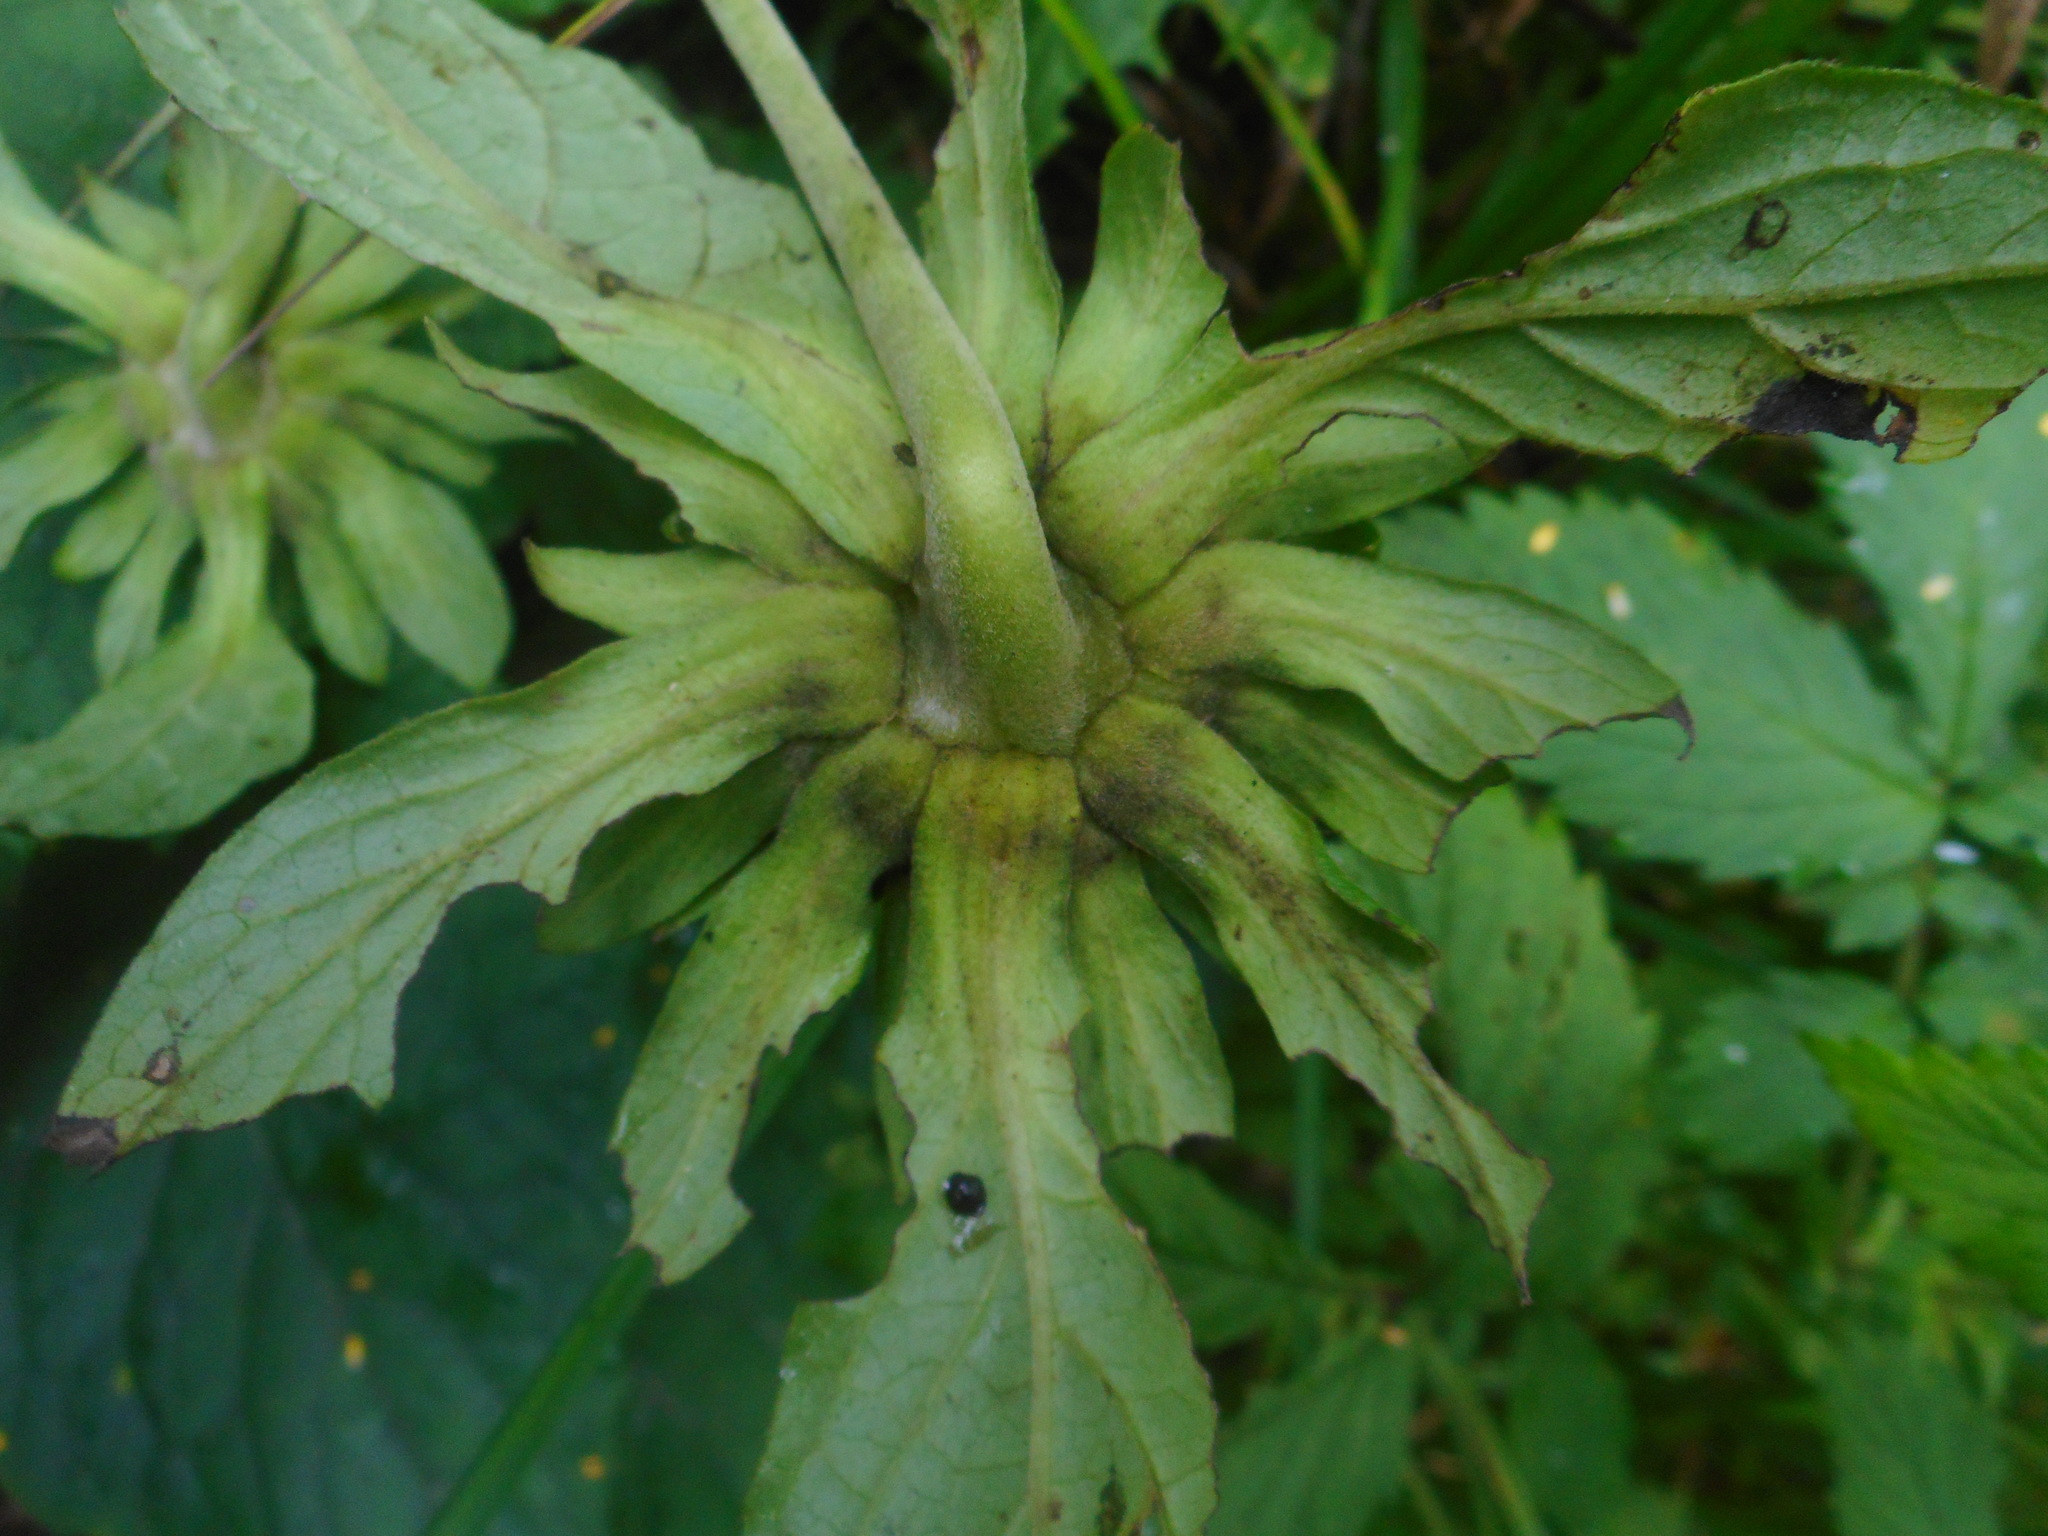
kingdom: Plantae
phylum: Tracheophyta
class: Magnoliopsida
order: Asterales
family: Asteraceae
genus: Carpesium
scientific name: Carpesium macrocephalum
